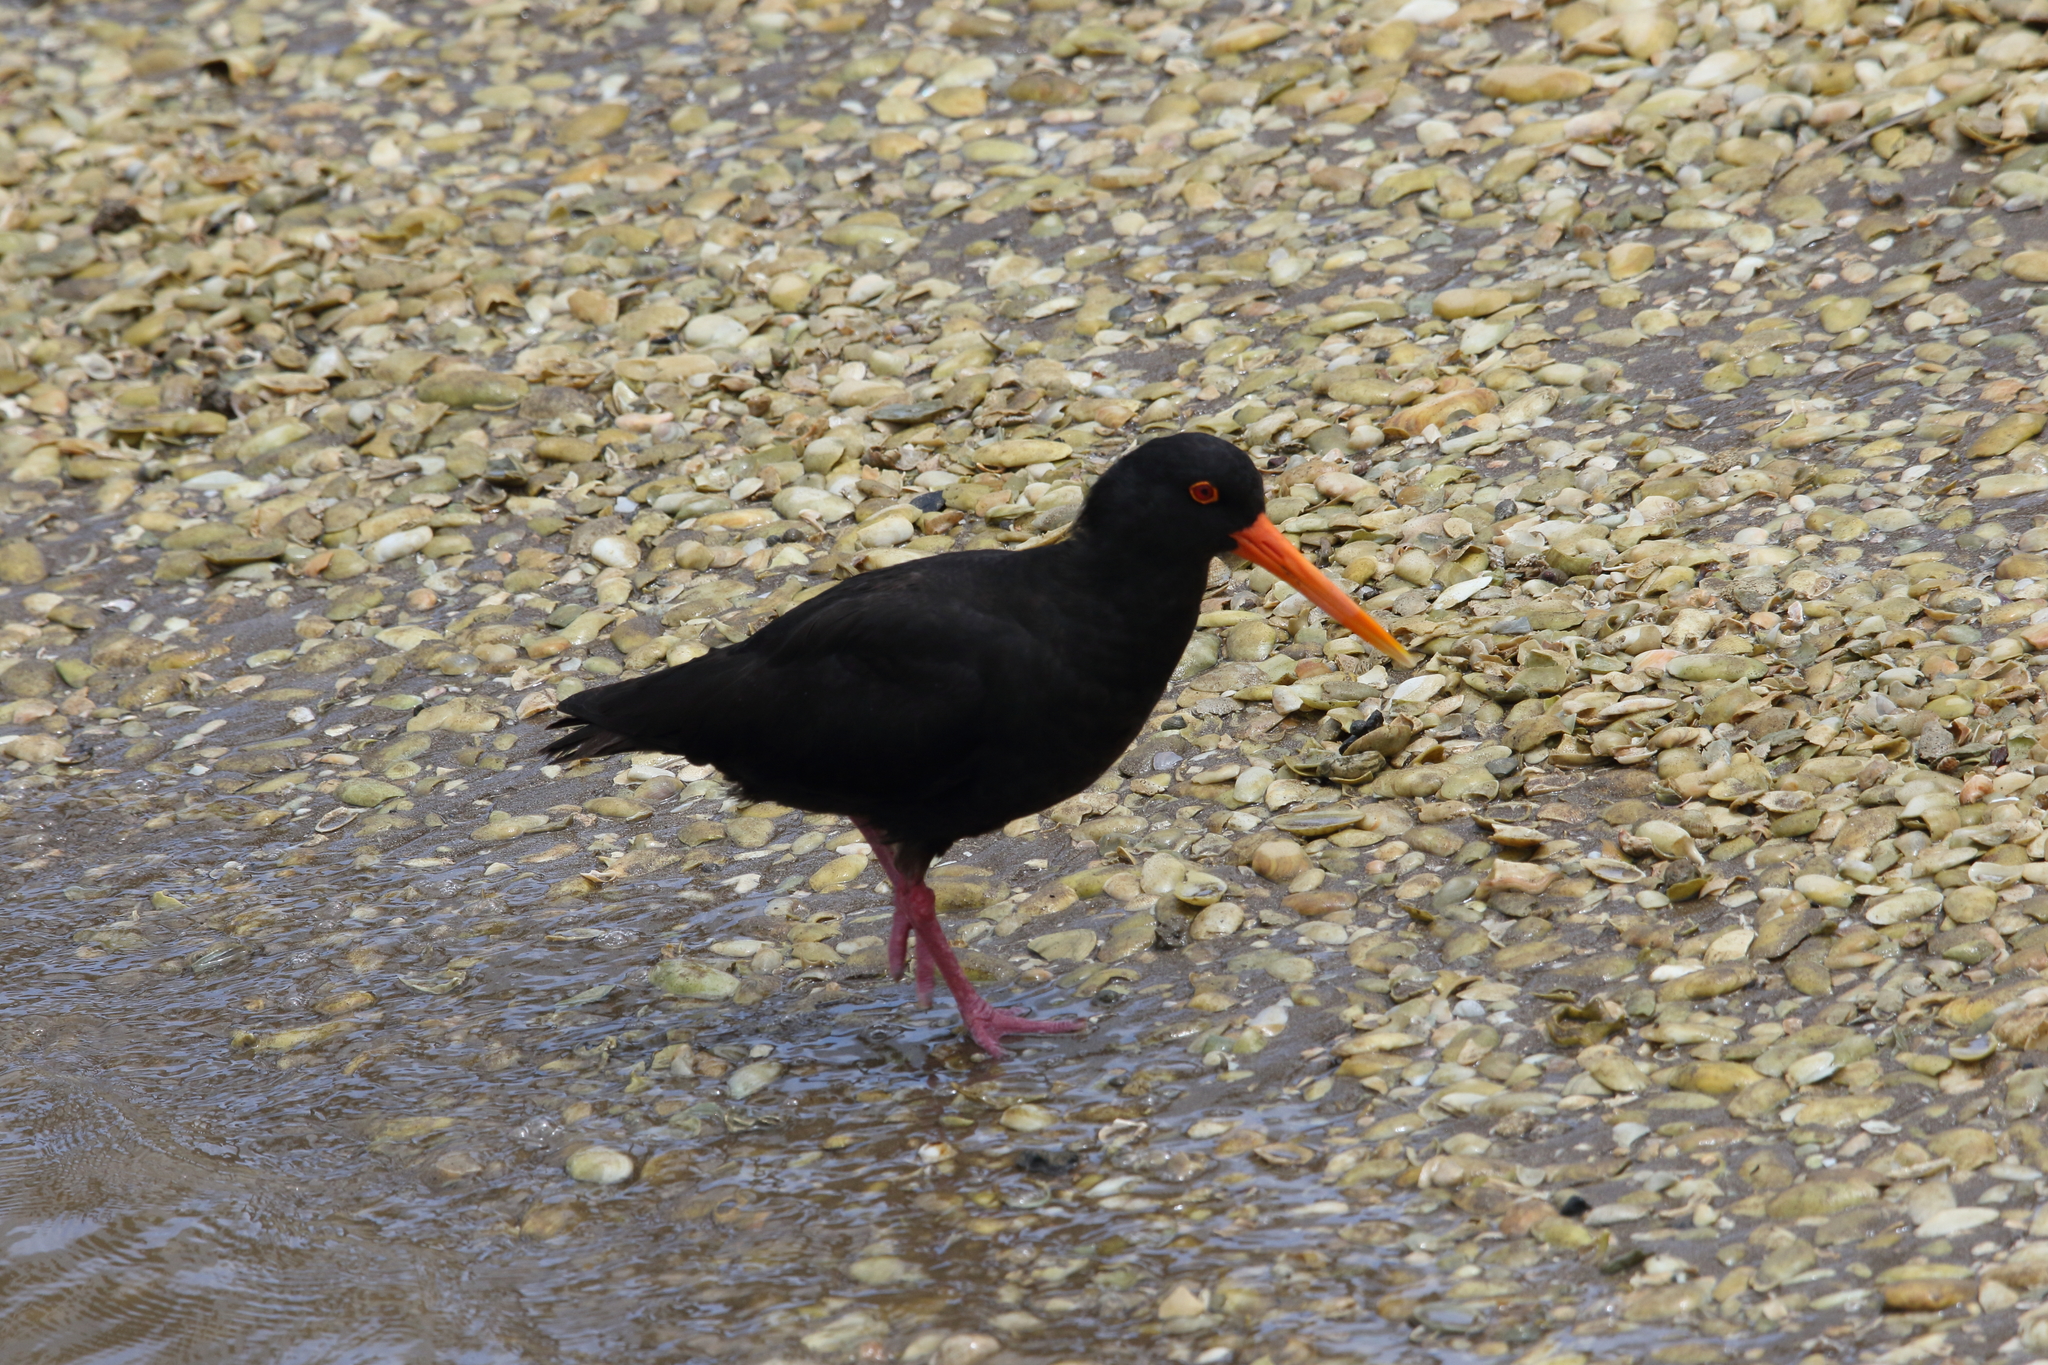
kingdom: Animalia
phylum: Chordata
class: Aves
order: Charadriiformes
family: Haematopodidae
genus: Haematopus
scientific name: Haematopus unicolor
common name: Variable oystercatcher
